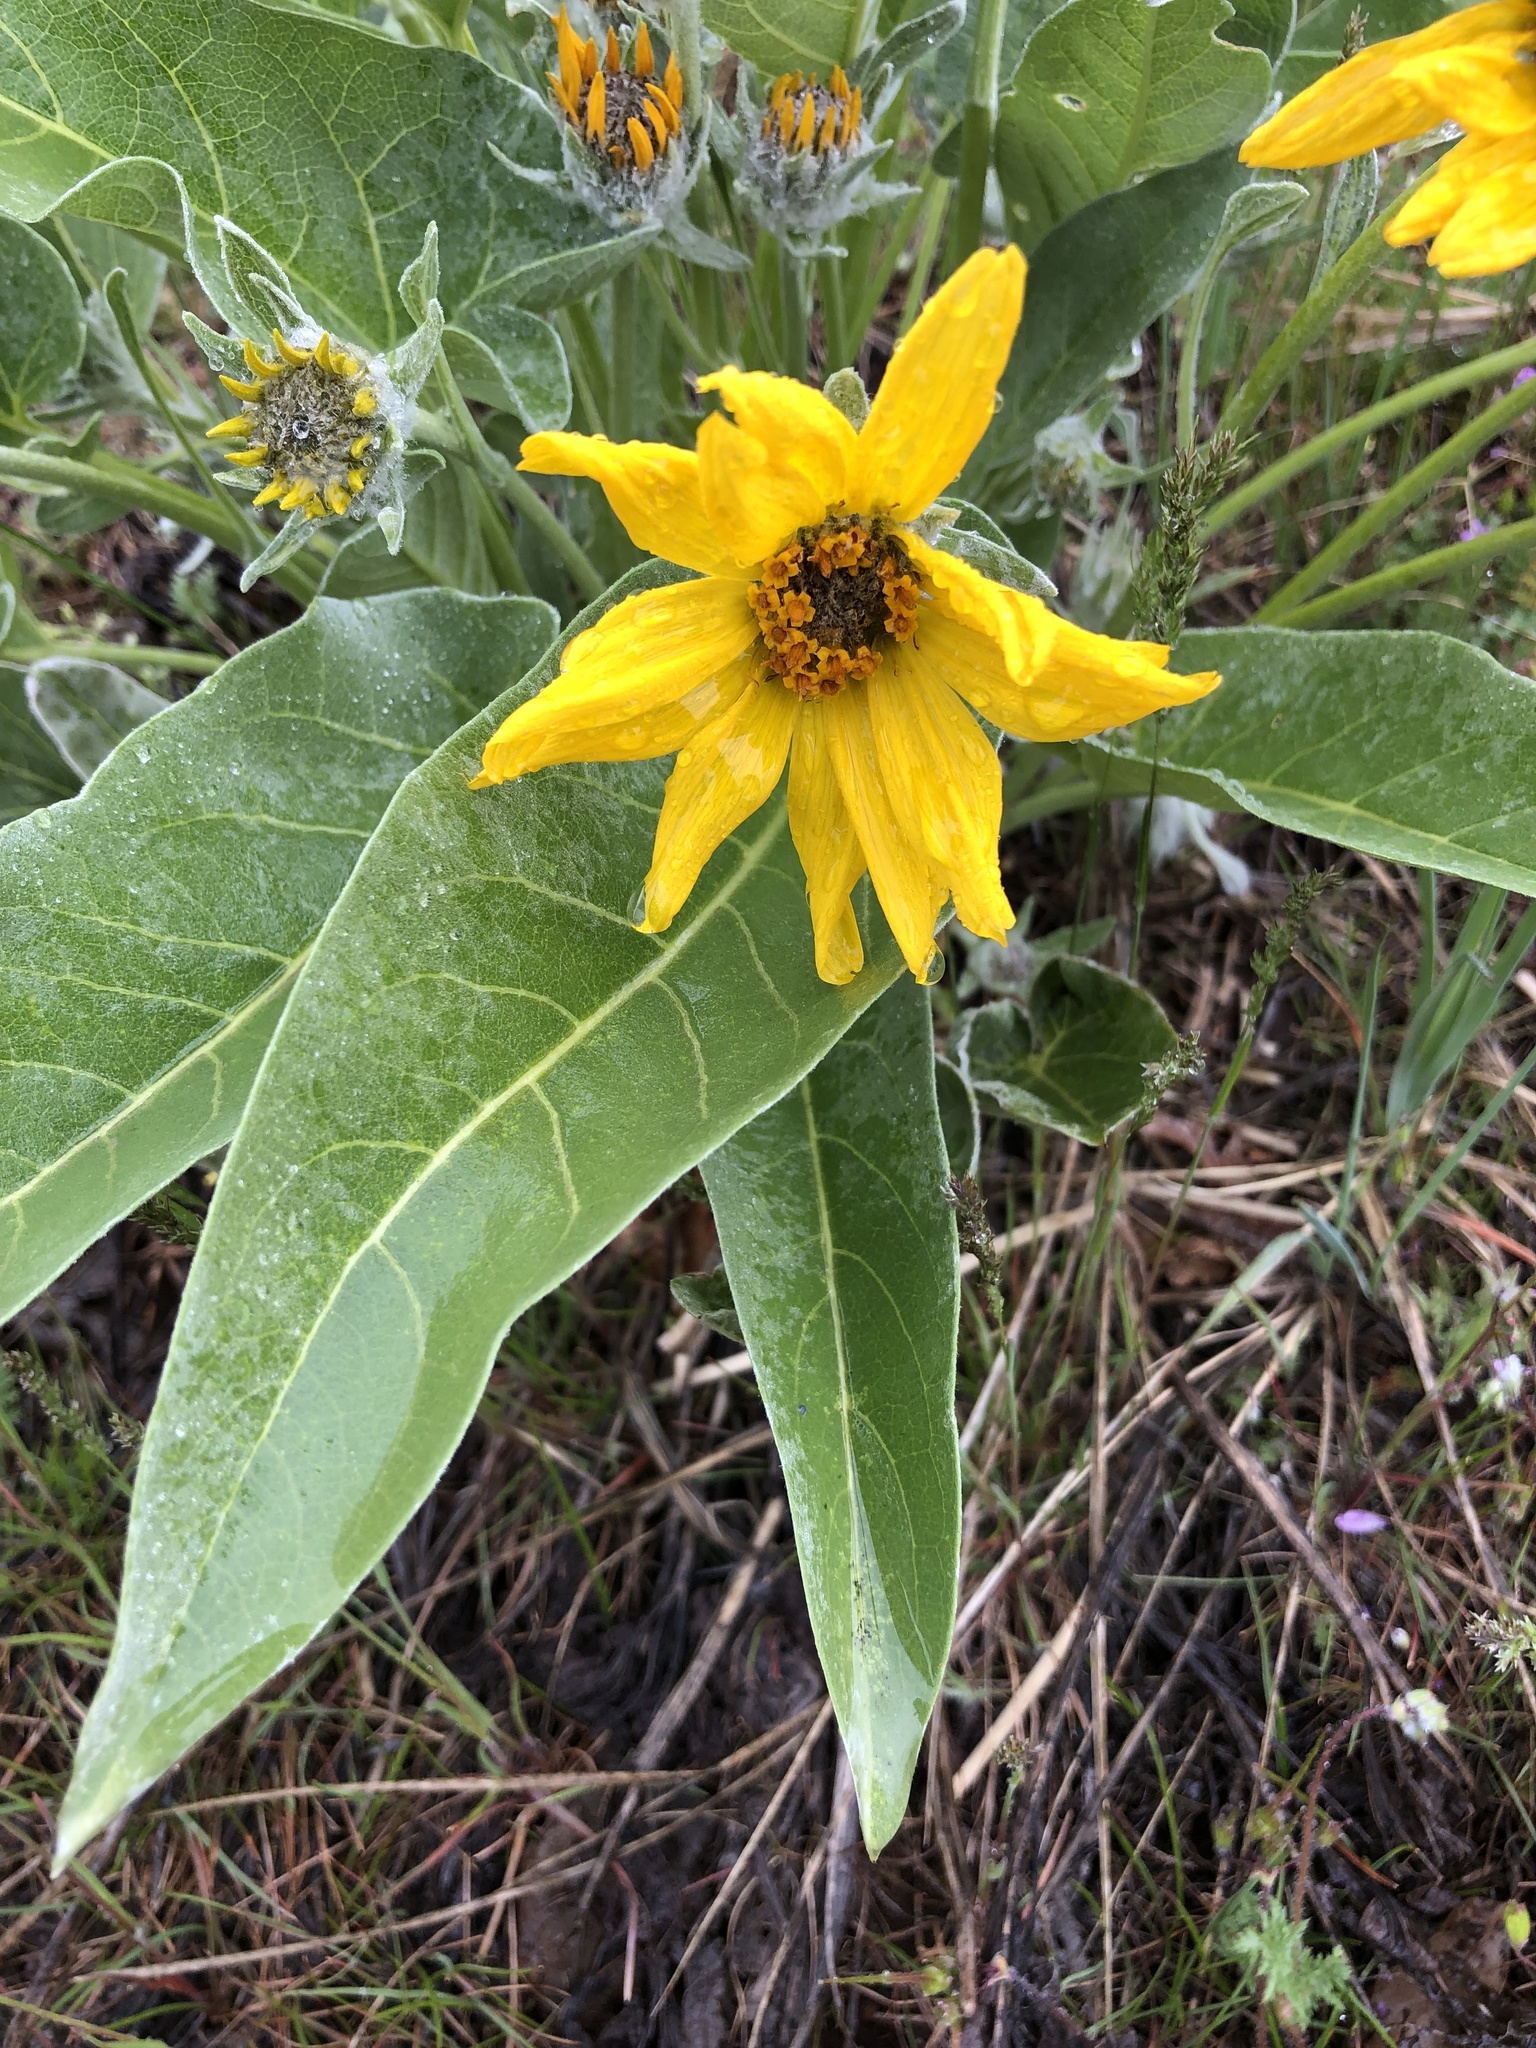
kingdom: Plantae
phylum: Tracheophyta
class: Magnoliopsida
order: Asterales
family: Asteraceae
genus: Wyethia
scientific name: Wyethia sagittata
